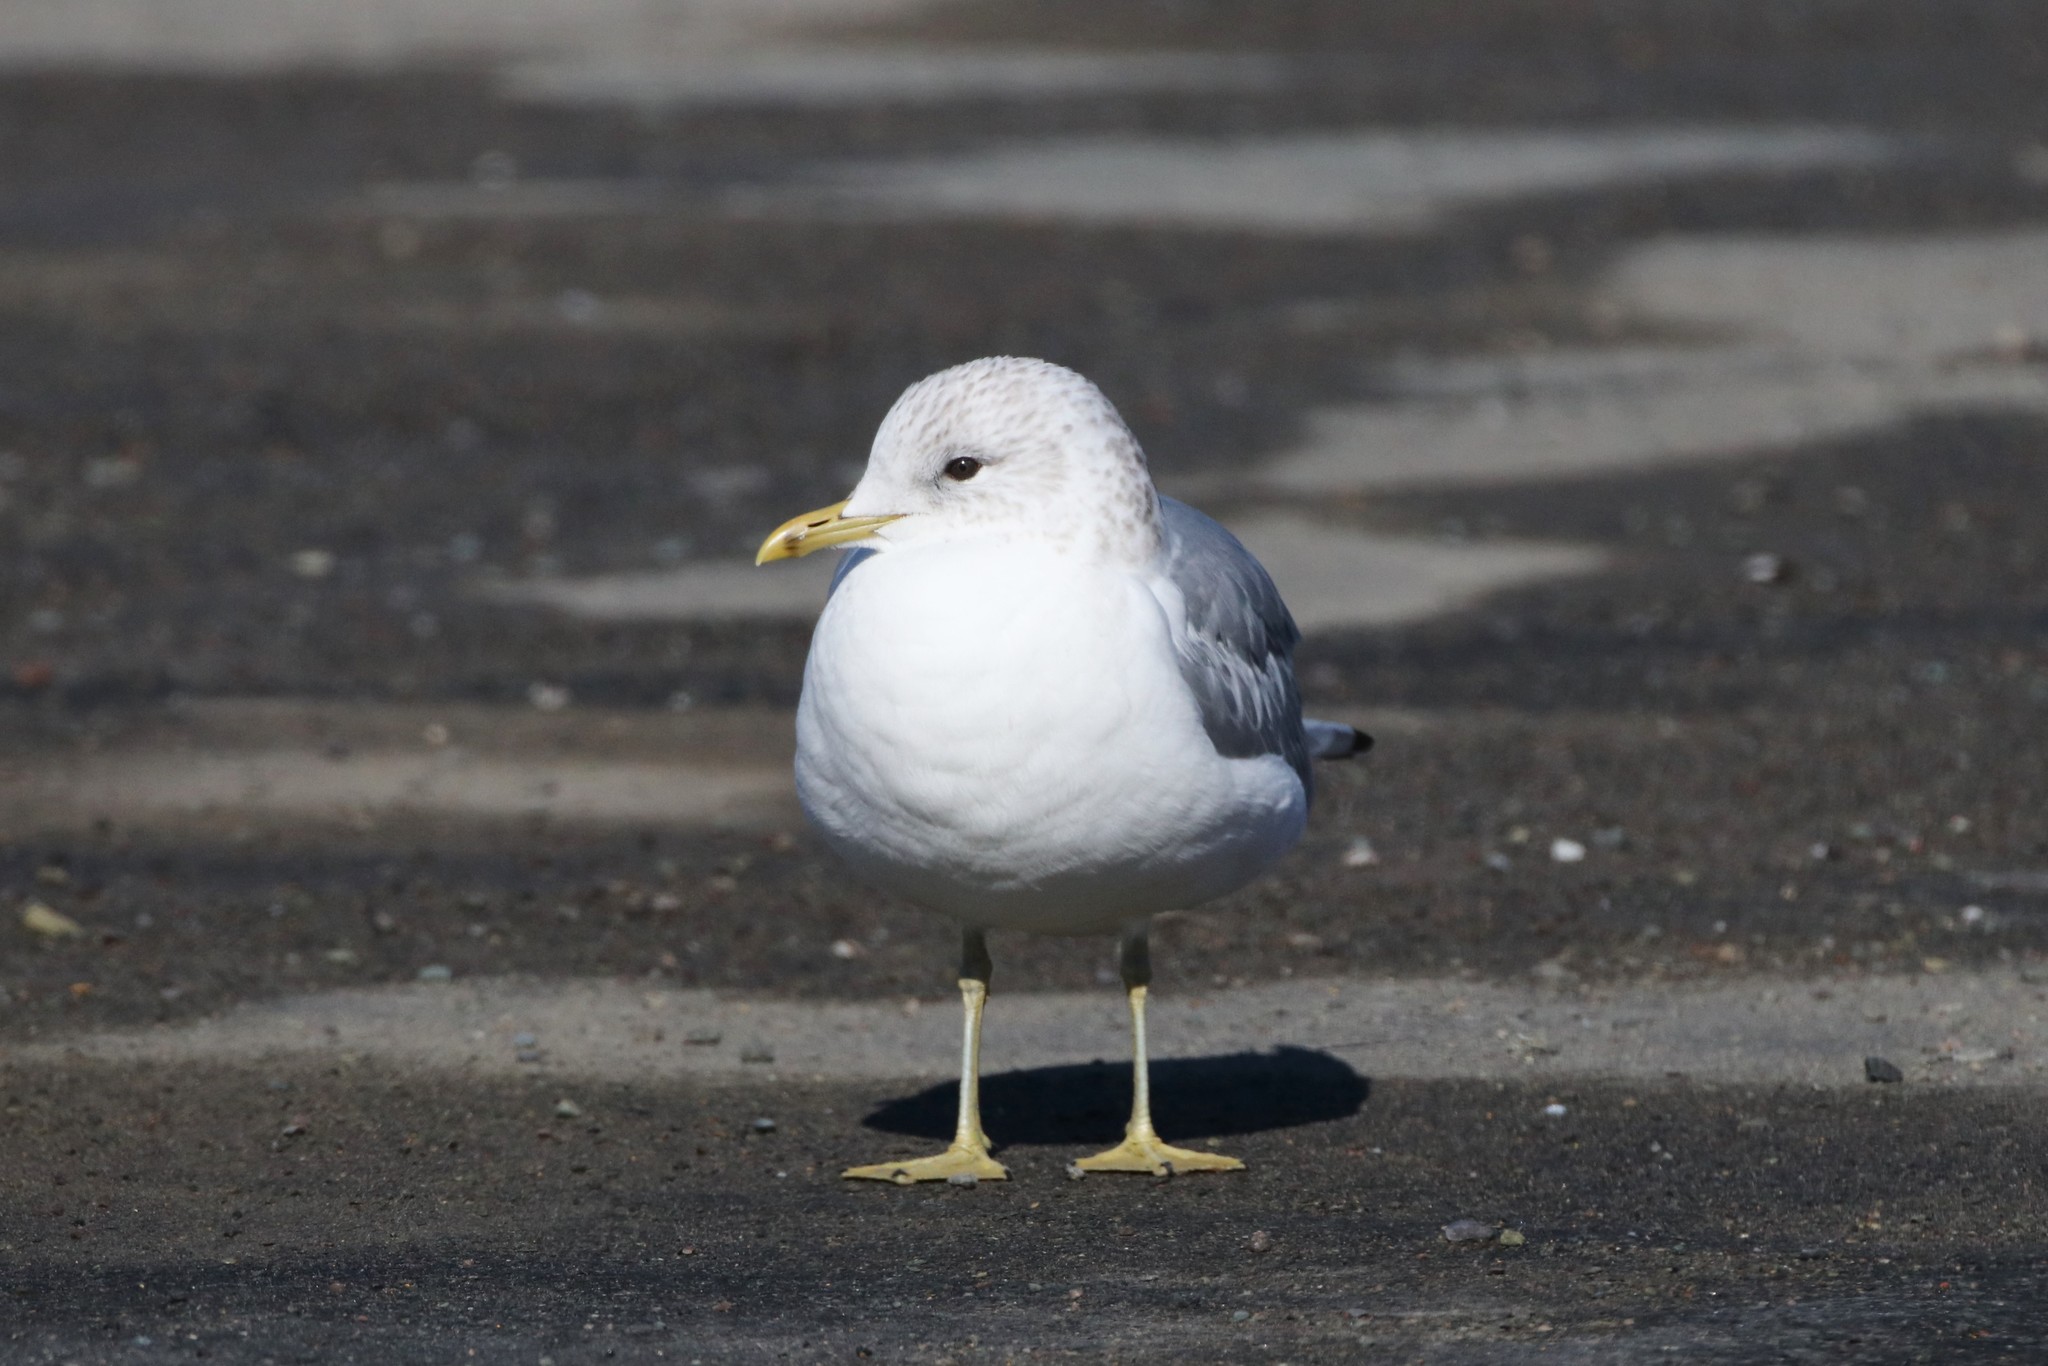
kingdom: Animalia
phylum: Chordata
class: Aves
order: Charadriiformes
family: Laridae
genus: Larus
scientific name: Larus canus
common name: Mew gull
